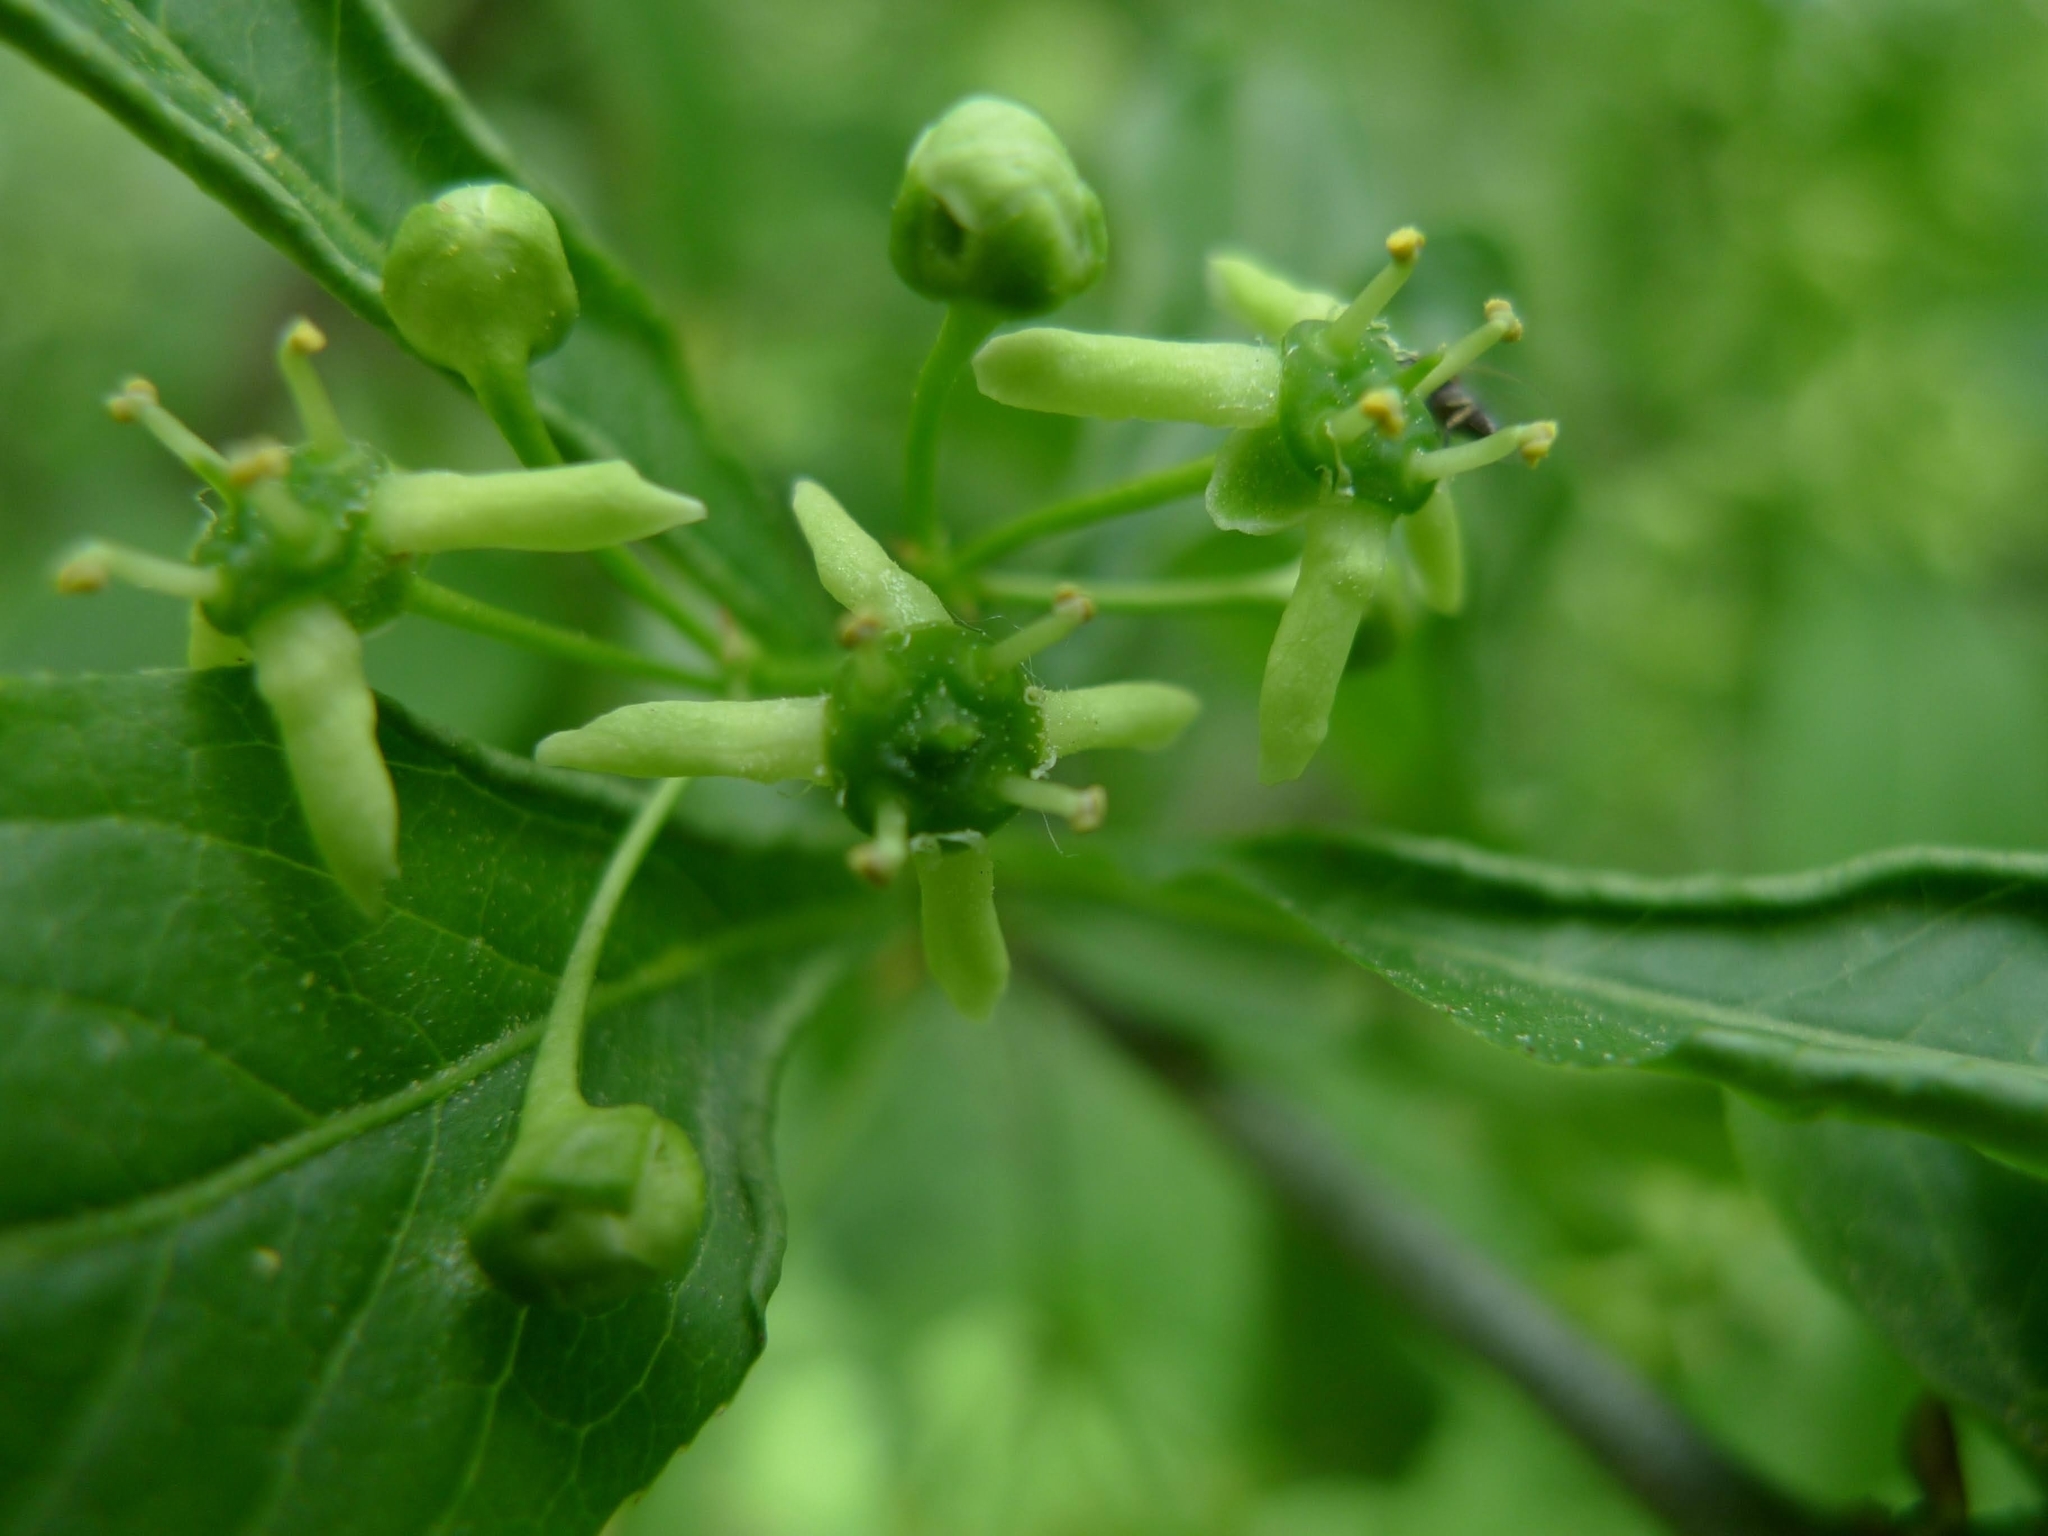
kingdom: Plantae
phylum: Tracheophyta
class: Magnoliopsida
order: Celastrales
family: Celastraceae
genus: Euonymus
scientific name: Euonymus europaeus
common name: Spindle
